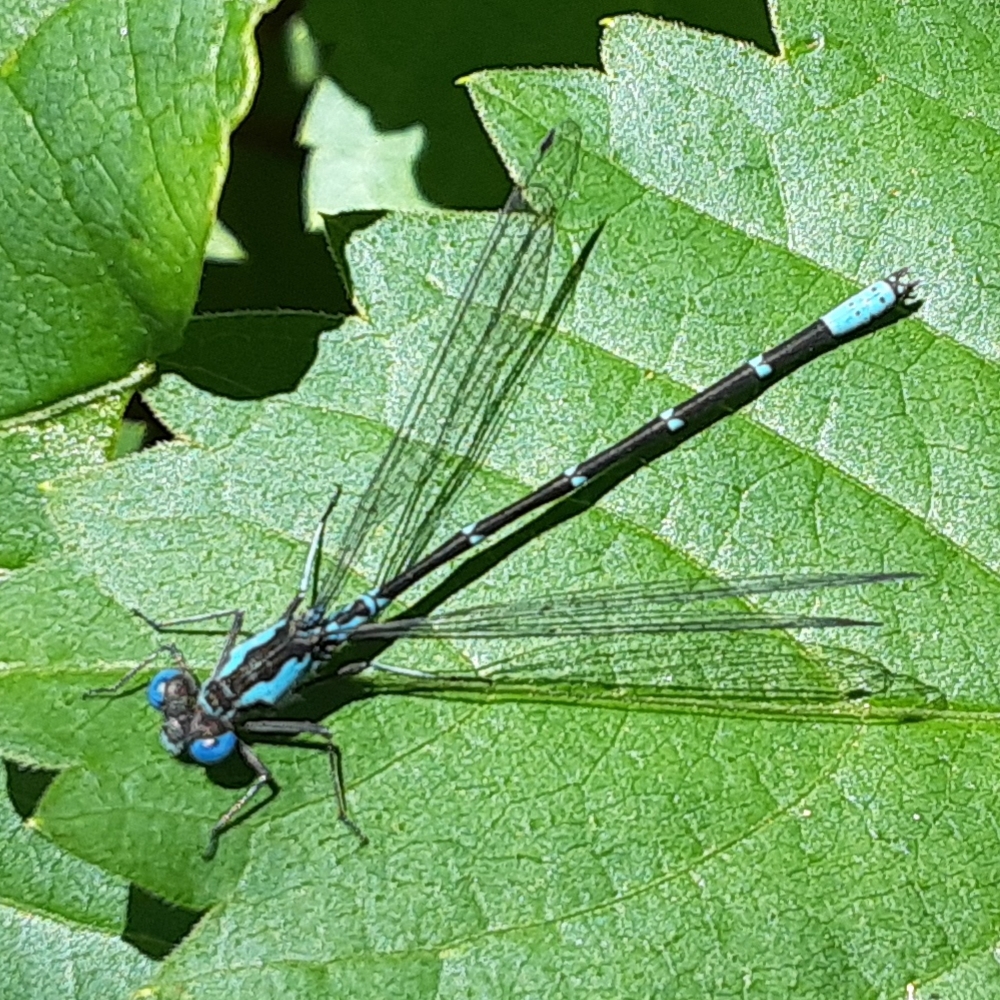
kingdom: Animalia
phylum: Arthropoda
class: Insecta
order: Odonata
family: Coenagrionidae
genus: Chromagrion
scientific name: Chromagrion conditum
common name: Aurora damsel
